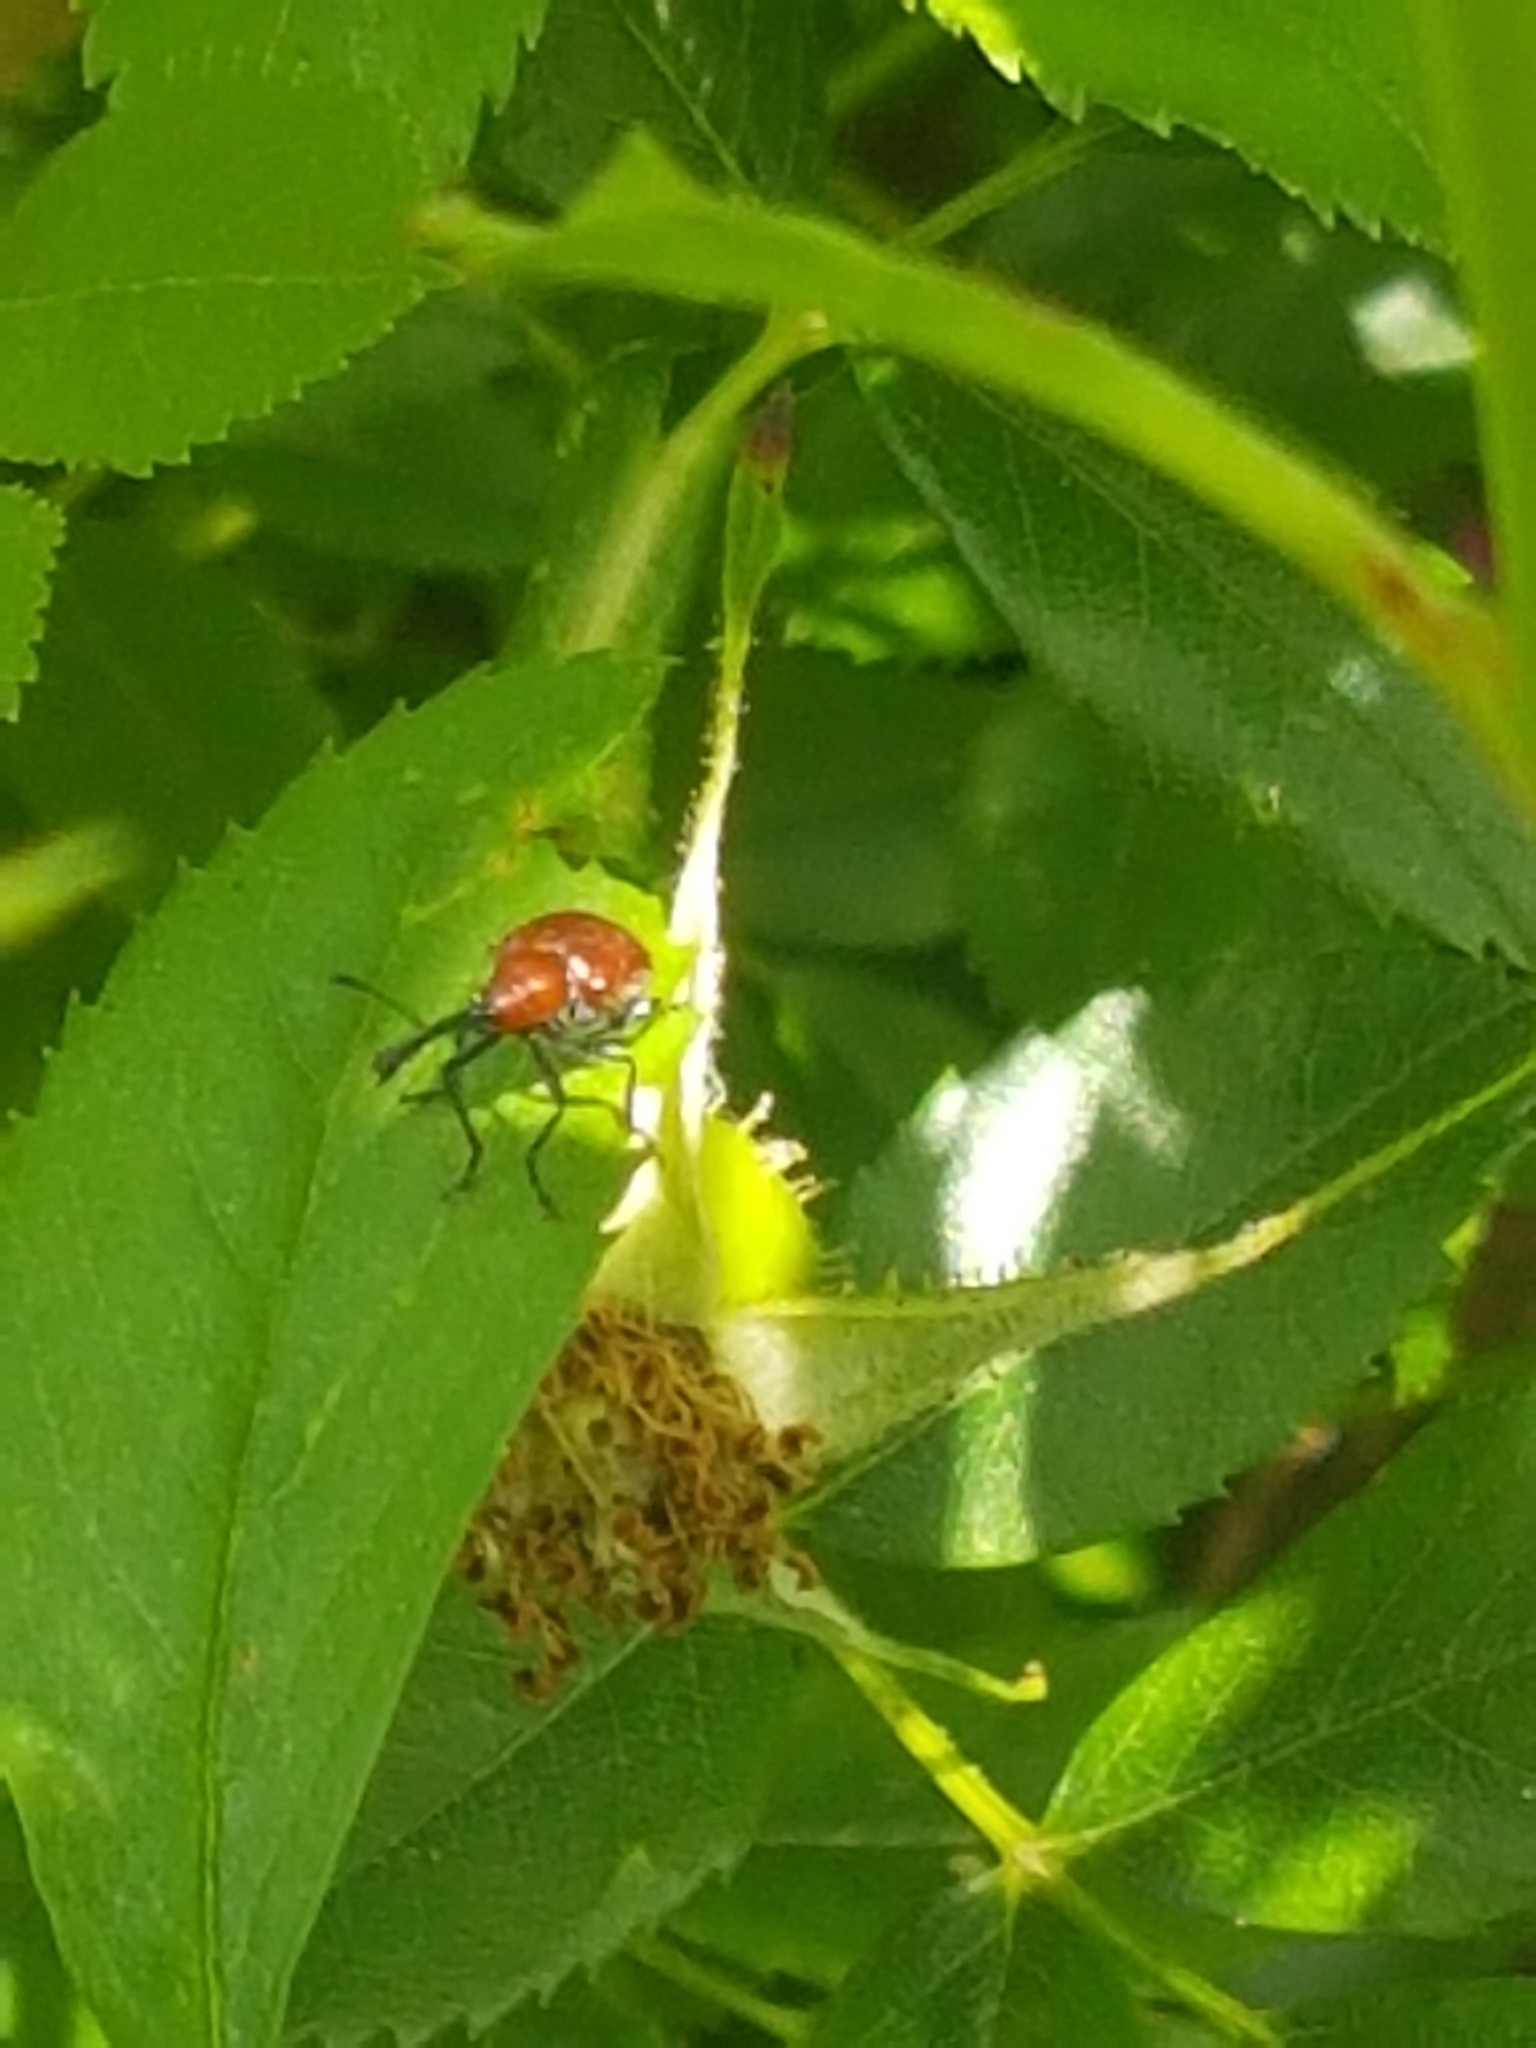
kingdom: Animalia
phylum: Arthropoda
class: Insecta
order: Coleoptera
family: Attelabidae
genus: Merhynchites
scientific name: Merhynchites bicolor
